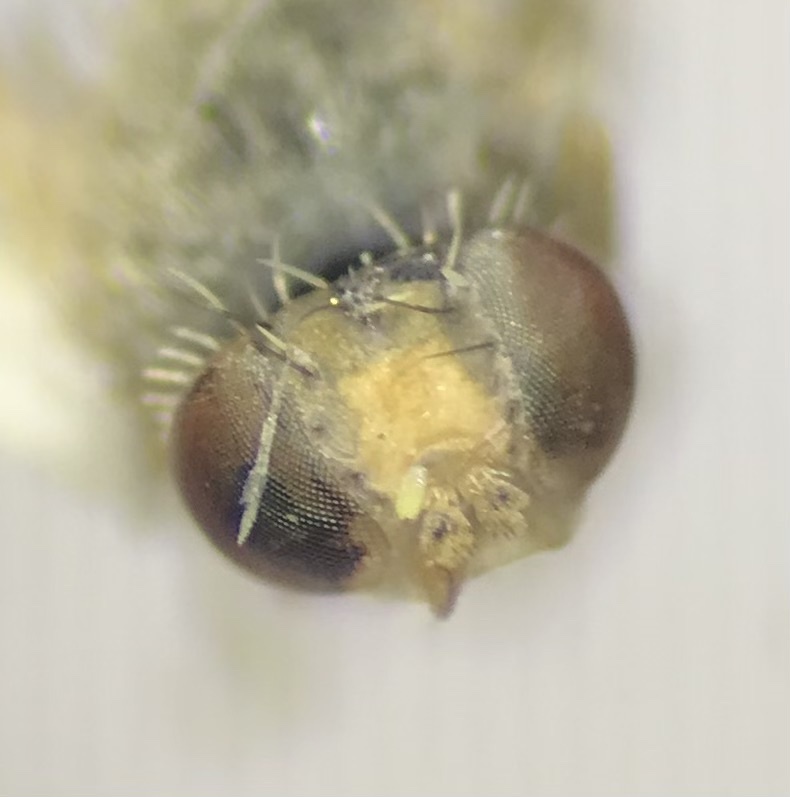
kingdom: Animalia
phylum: Arthropoda
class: Insecta
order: Diptera
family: Tephritidae
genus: Euarestoides
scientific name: Euarestoides acutangulus
